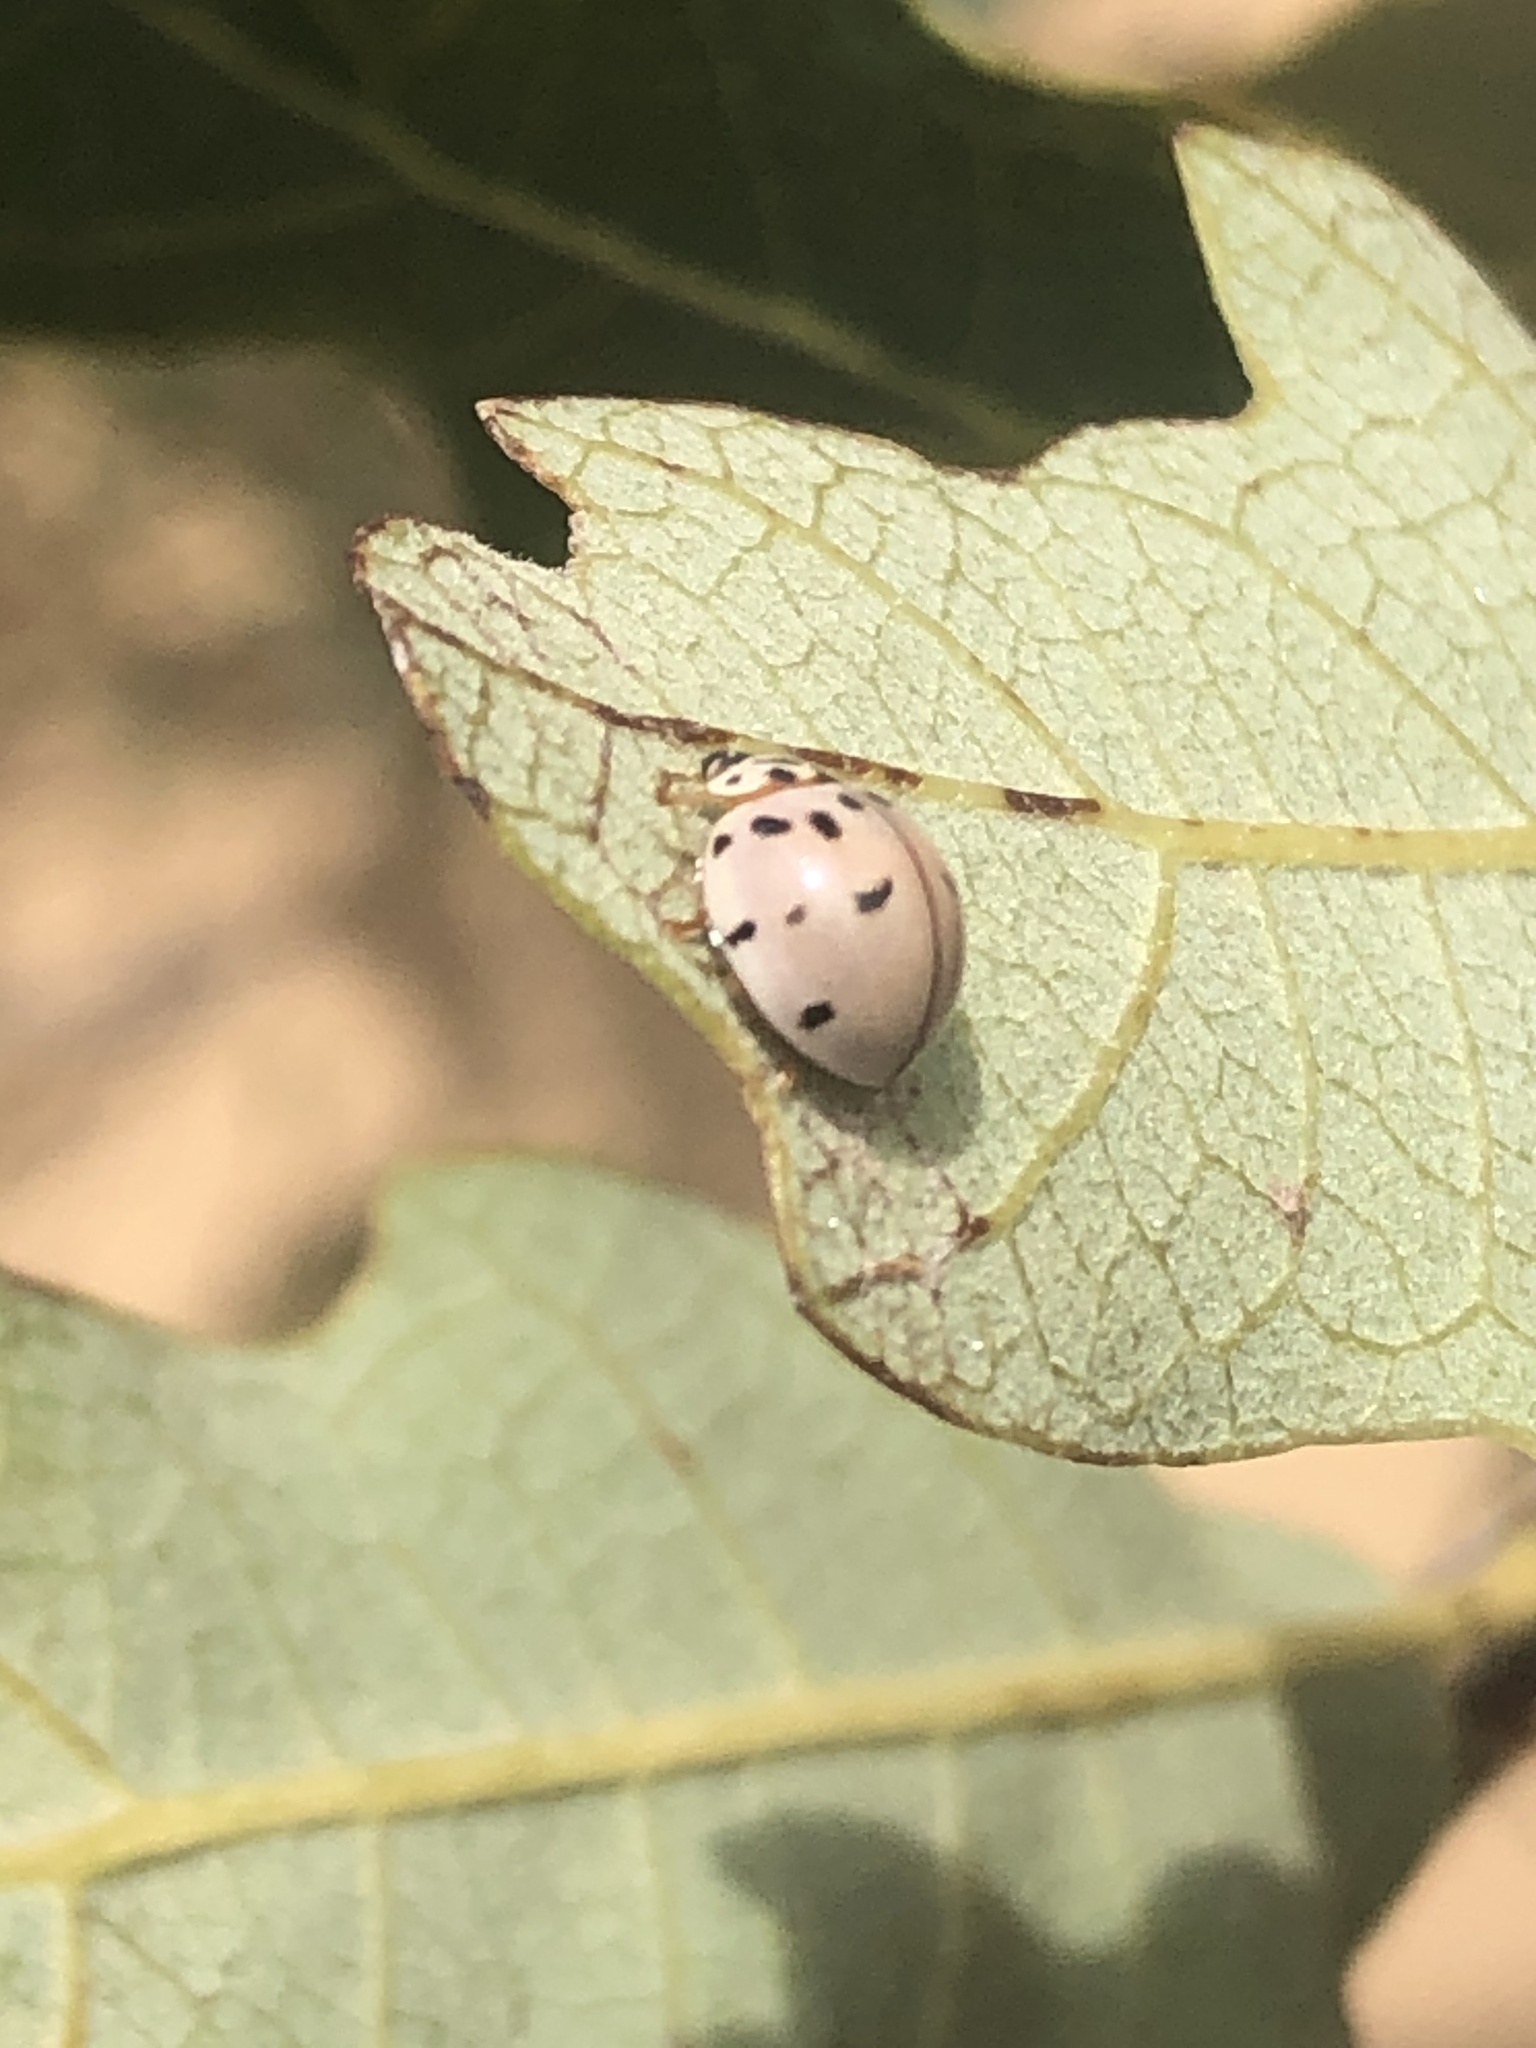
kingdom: Animalia
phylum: Arthropoda
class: Insecta
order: Coleoptera
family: Coccinellidae
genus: Olla
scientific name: Olla v-nigrum
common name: Ashy gray lady beetle
